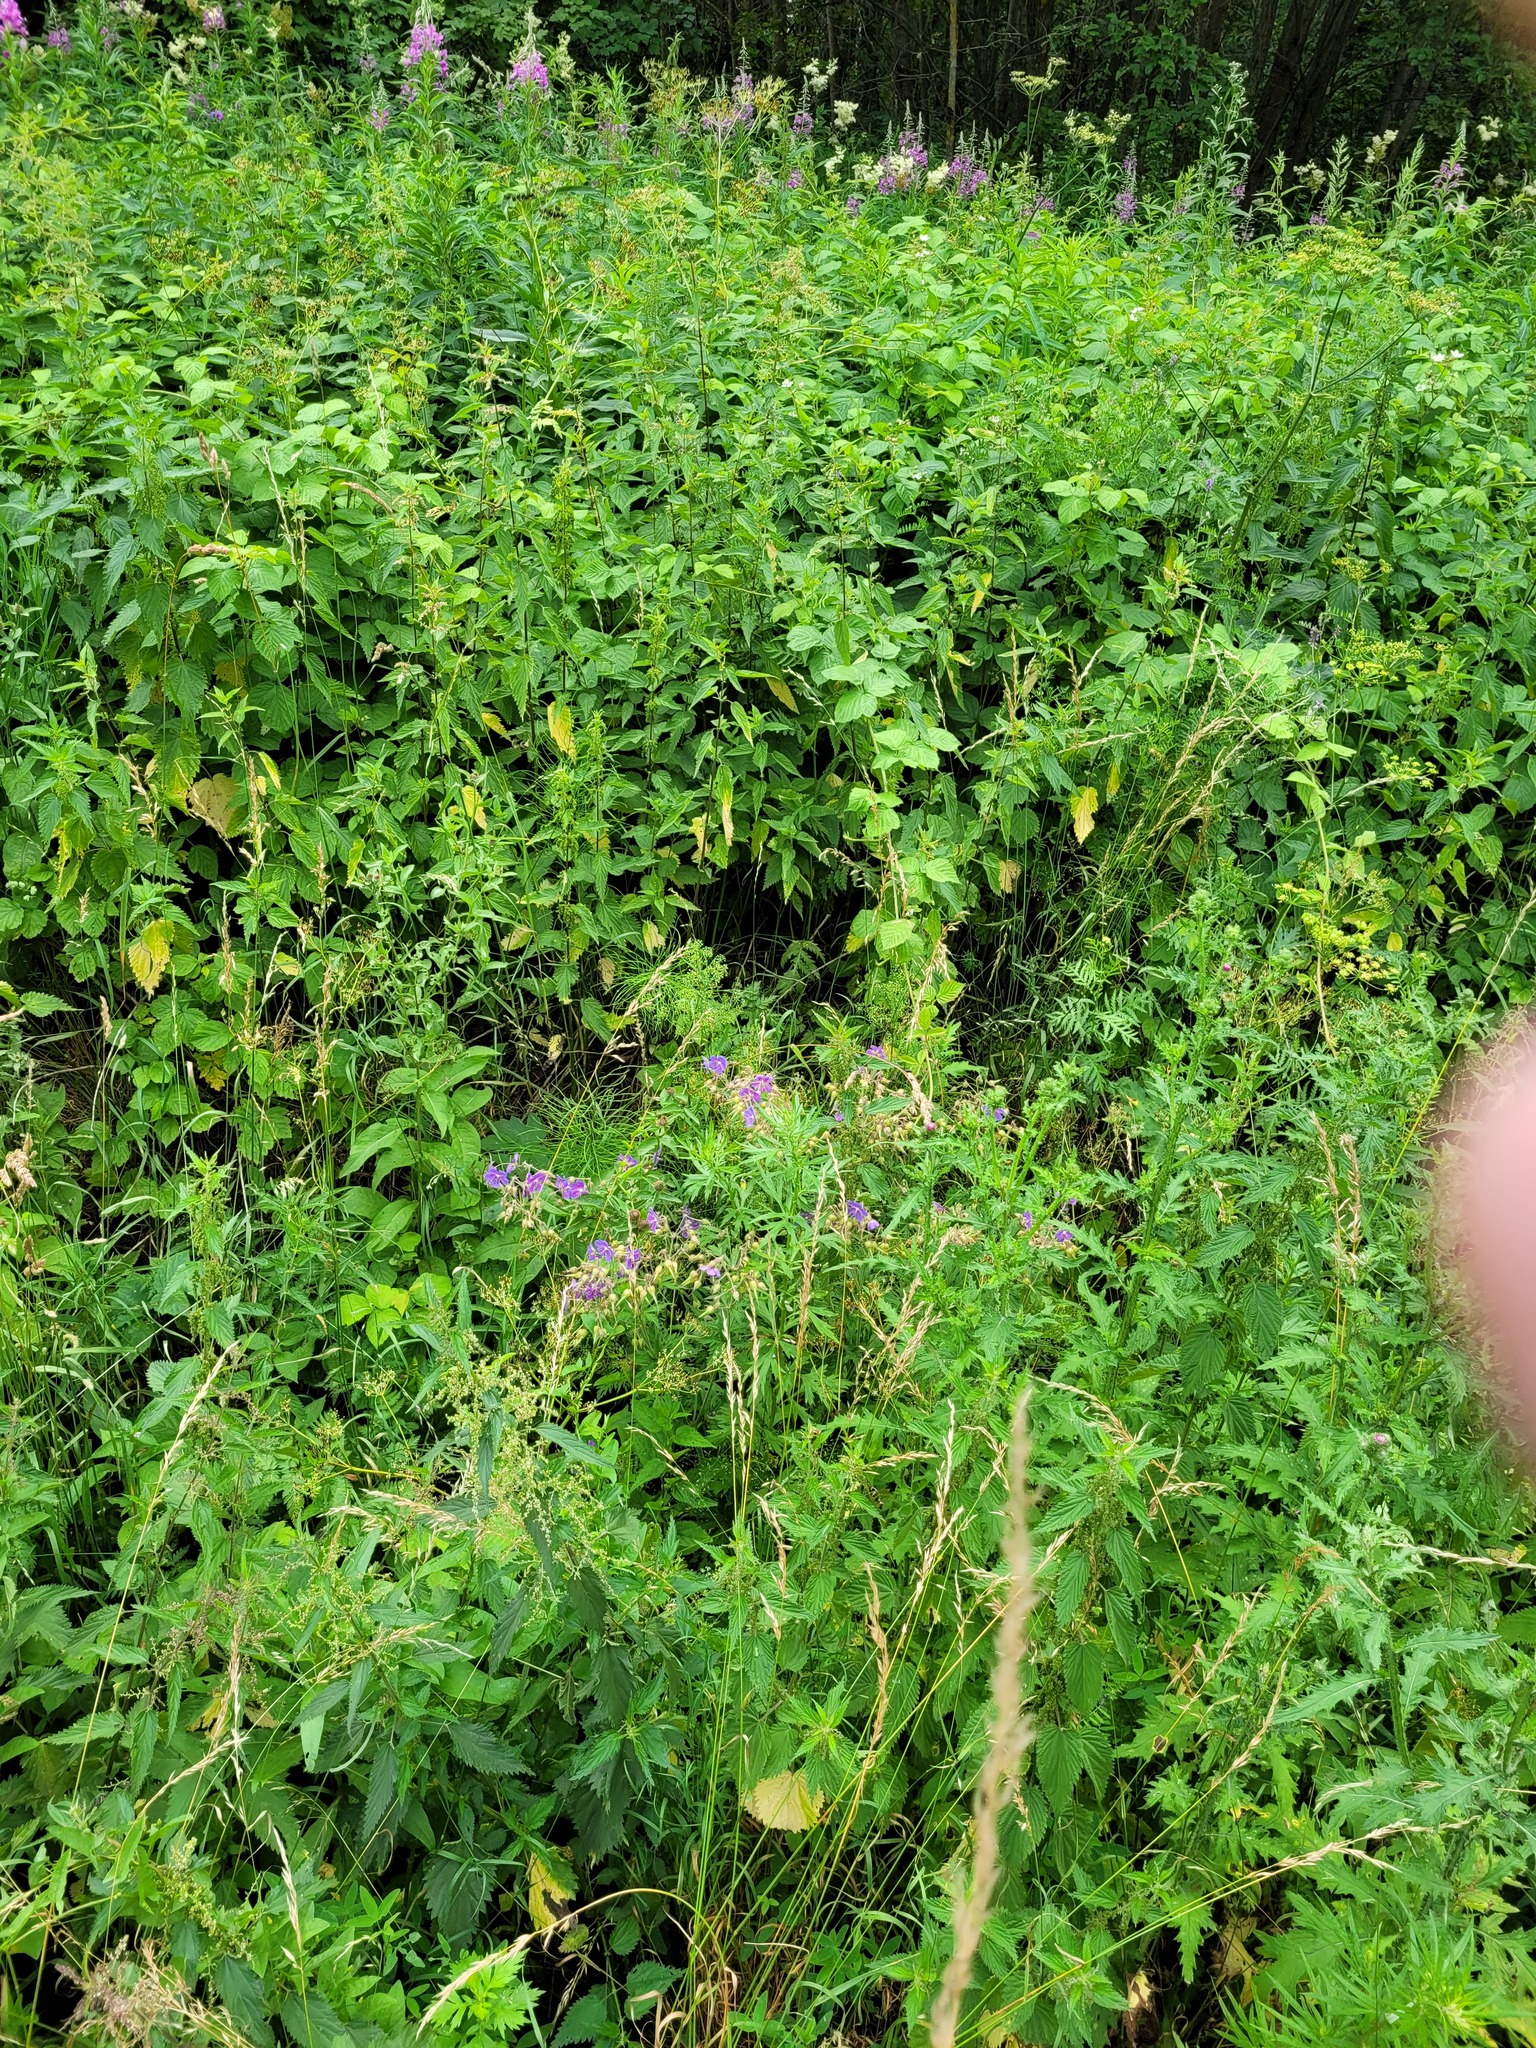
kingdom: Plantae
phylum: Tracheophyta
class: Magnoliopsida
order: Geraniales
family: Geraniaceae
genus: Geranium
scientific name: Geranium pratense
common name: Meadow crane's-bill
